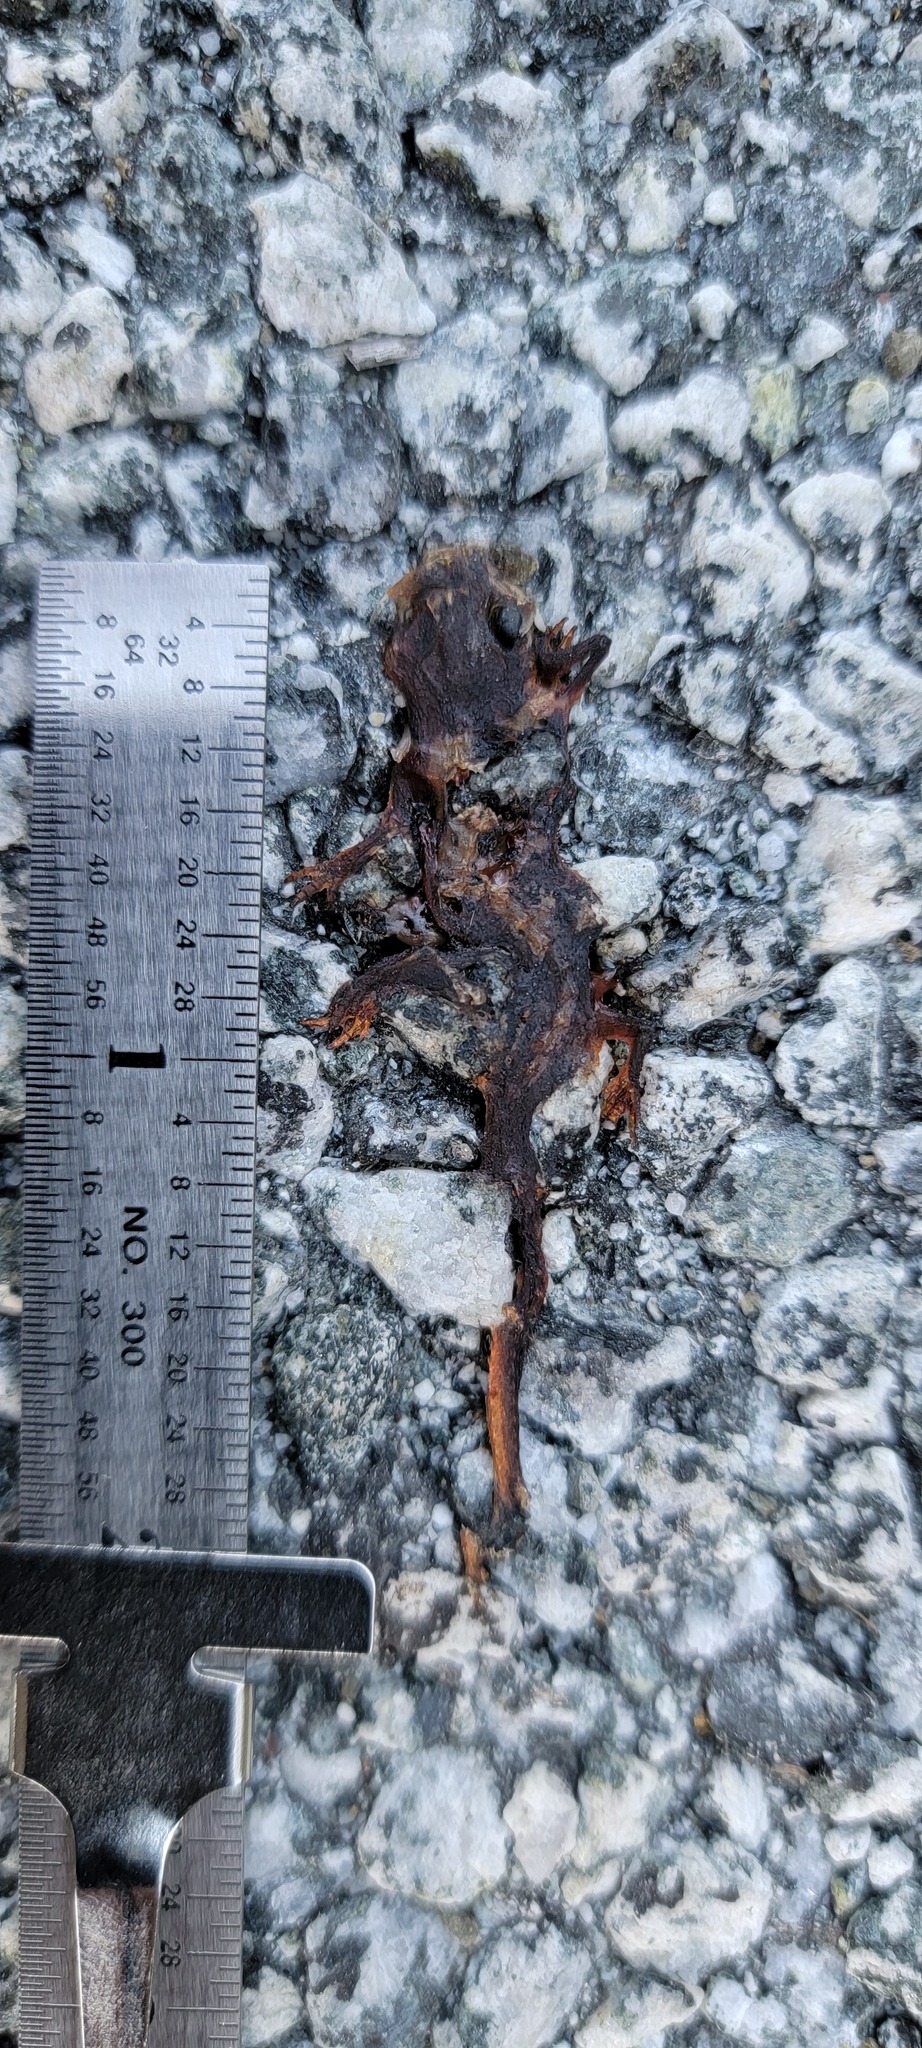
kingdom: Animalia
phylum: Chordata
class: Amphibia
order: Caudata
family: Salamandridae
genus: Taricha
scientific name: Taricha
